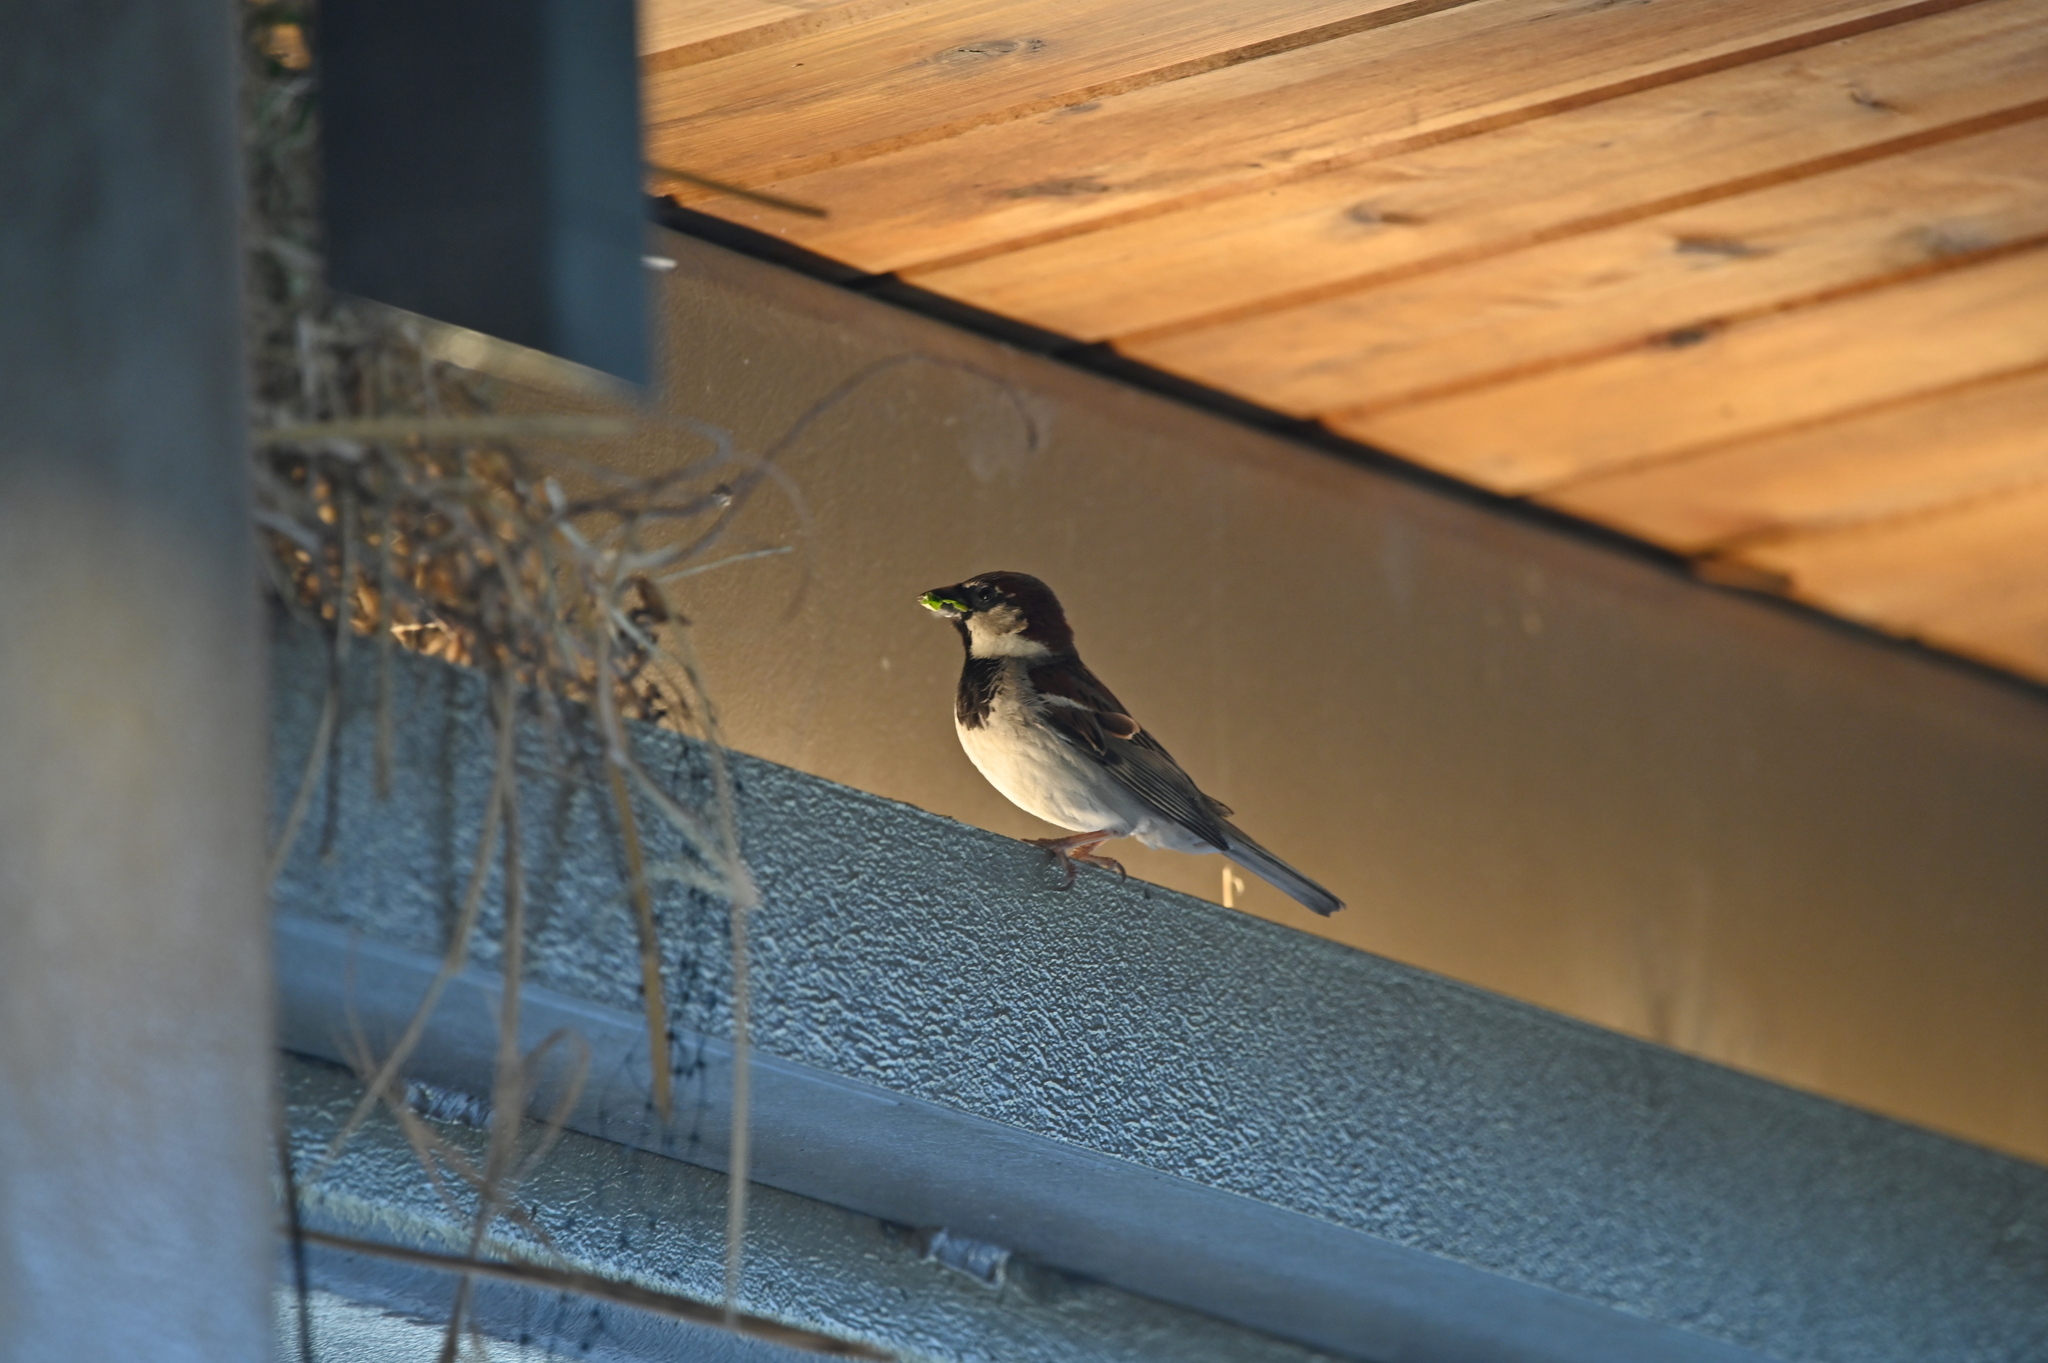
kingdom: Animalia
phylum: Chordata
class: Aves
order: Passeriformes
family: Passeridae
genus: Passer
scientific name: Passer domesticus
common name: House sparrow
